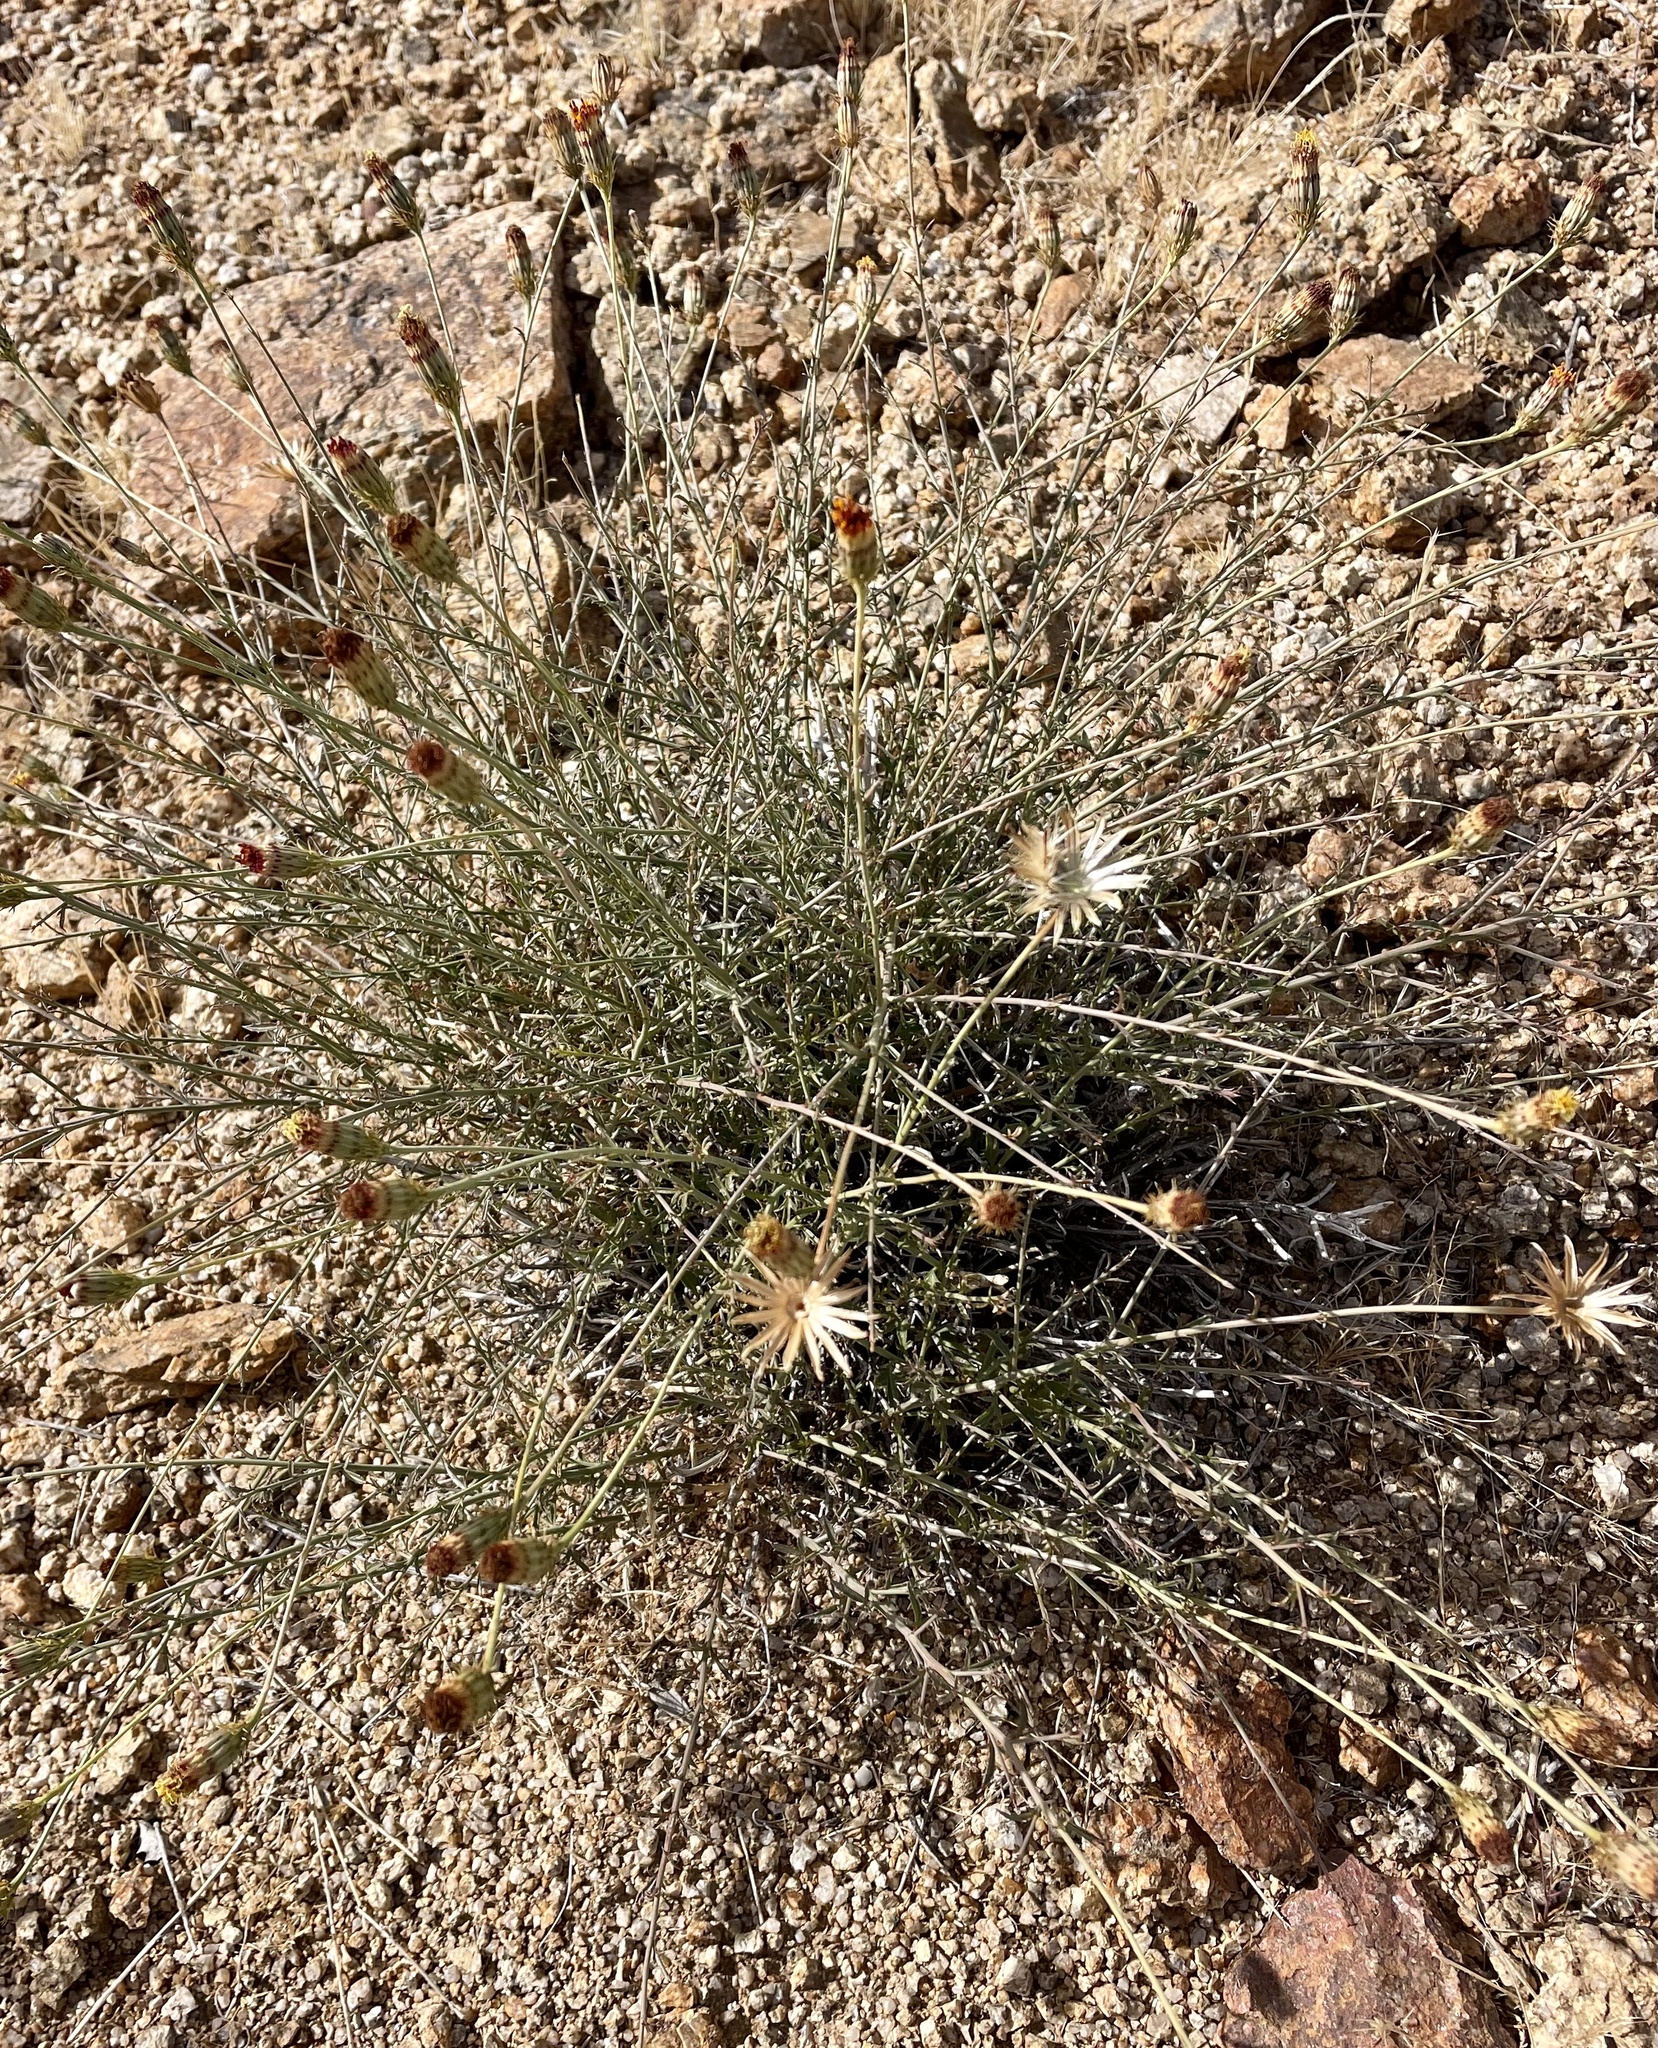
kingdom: Plantae
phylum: Tracheophyta
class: Magnoliopsida
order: Asterales
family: Asteraceae
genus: Adenophyllum
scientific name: Adenophyllum porophylloides
